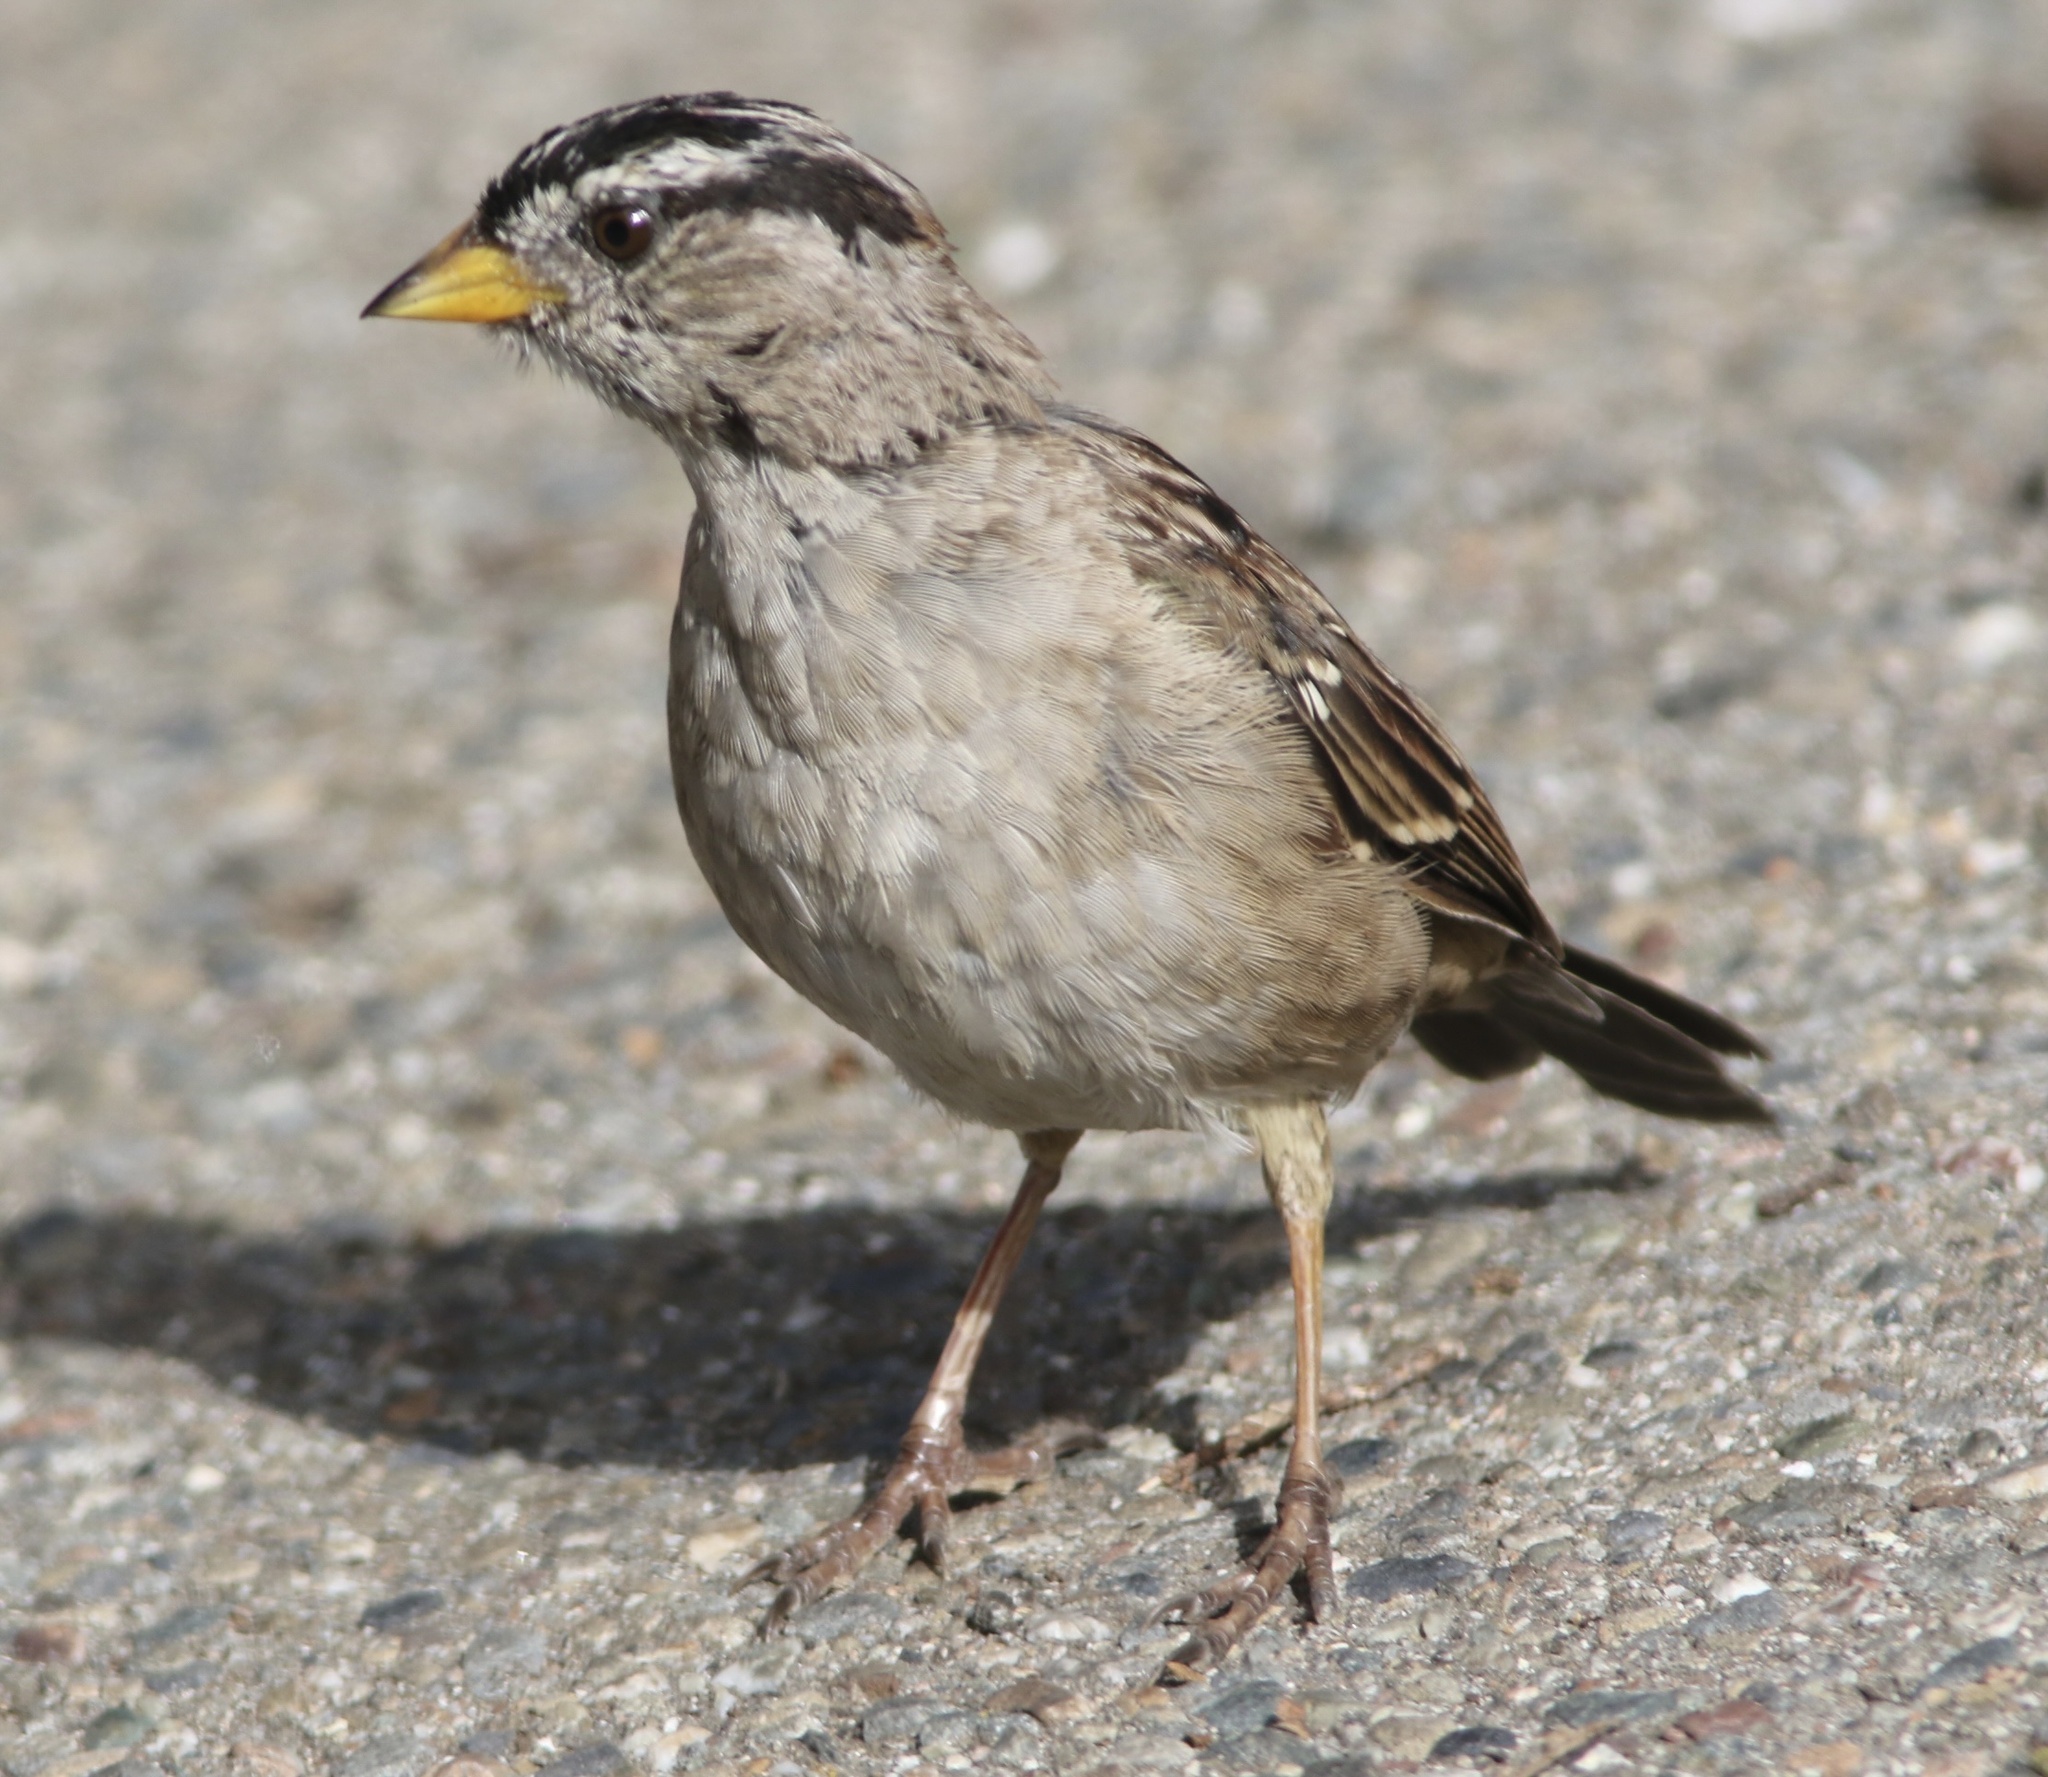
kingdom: Animalia
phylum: Chordata
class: Aves
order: Passeriformes
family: Passerellidae
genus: Zonotrichia
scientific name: Zonotrichia leucophrys
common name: White-crowned sparrow
